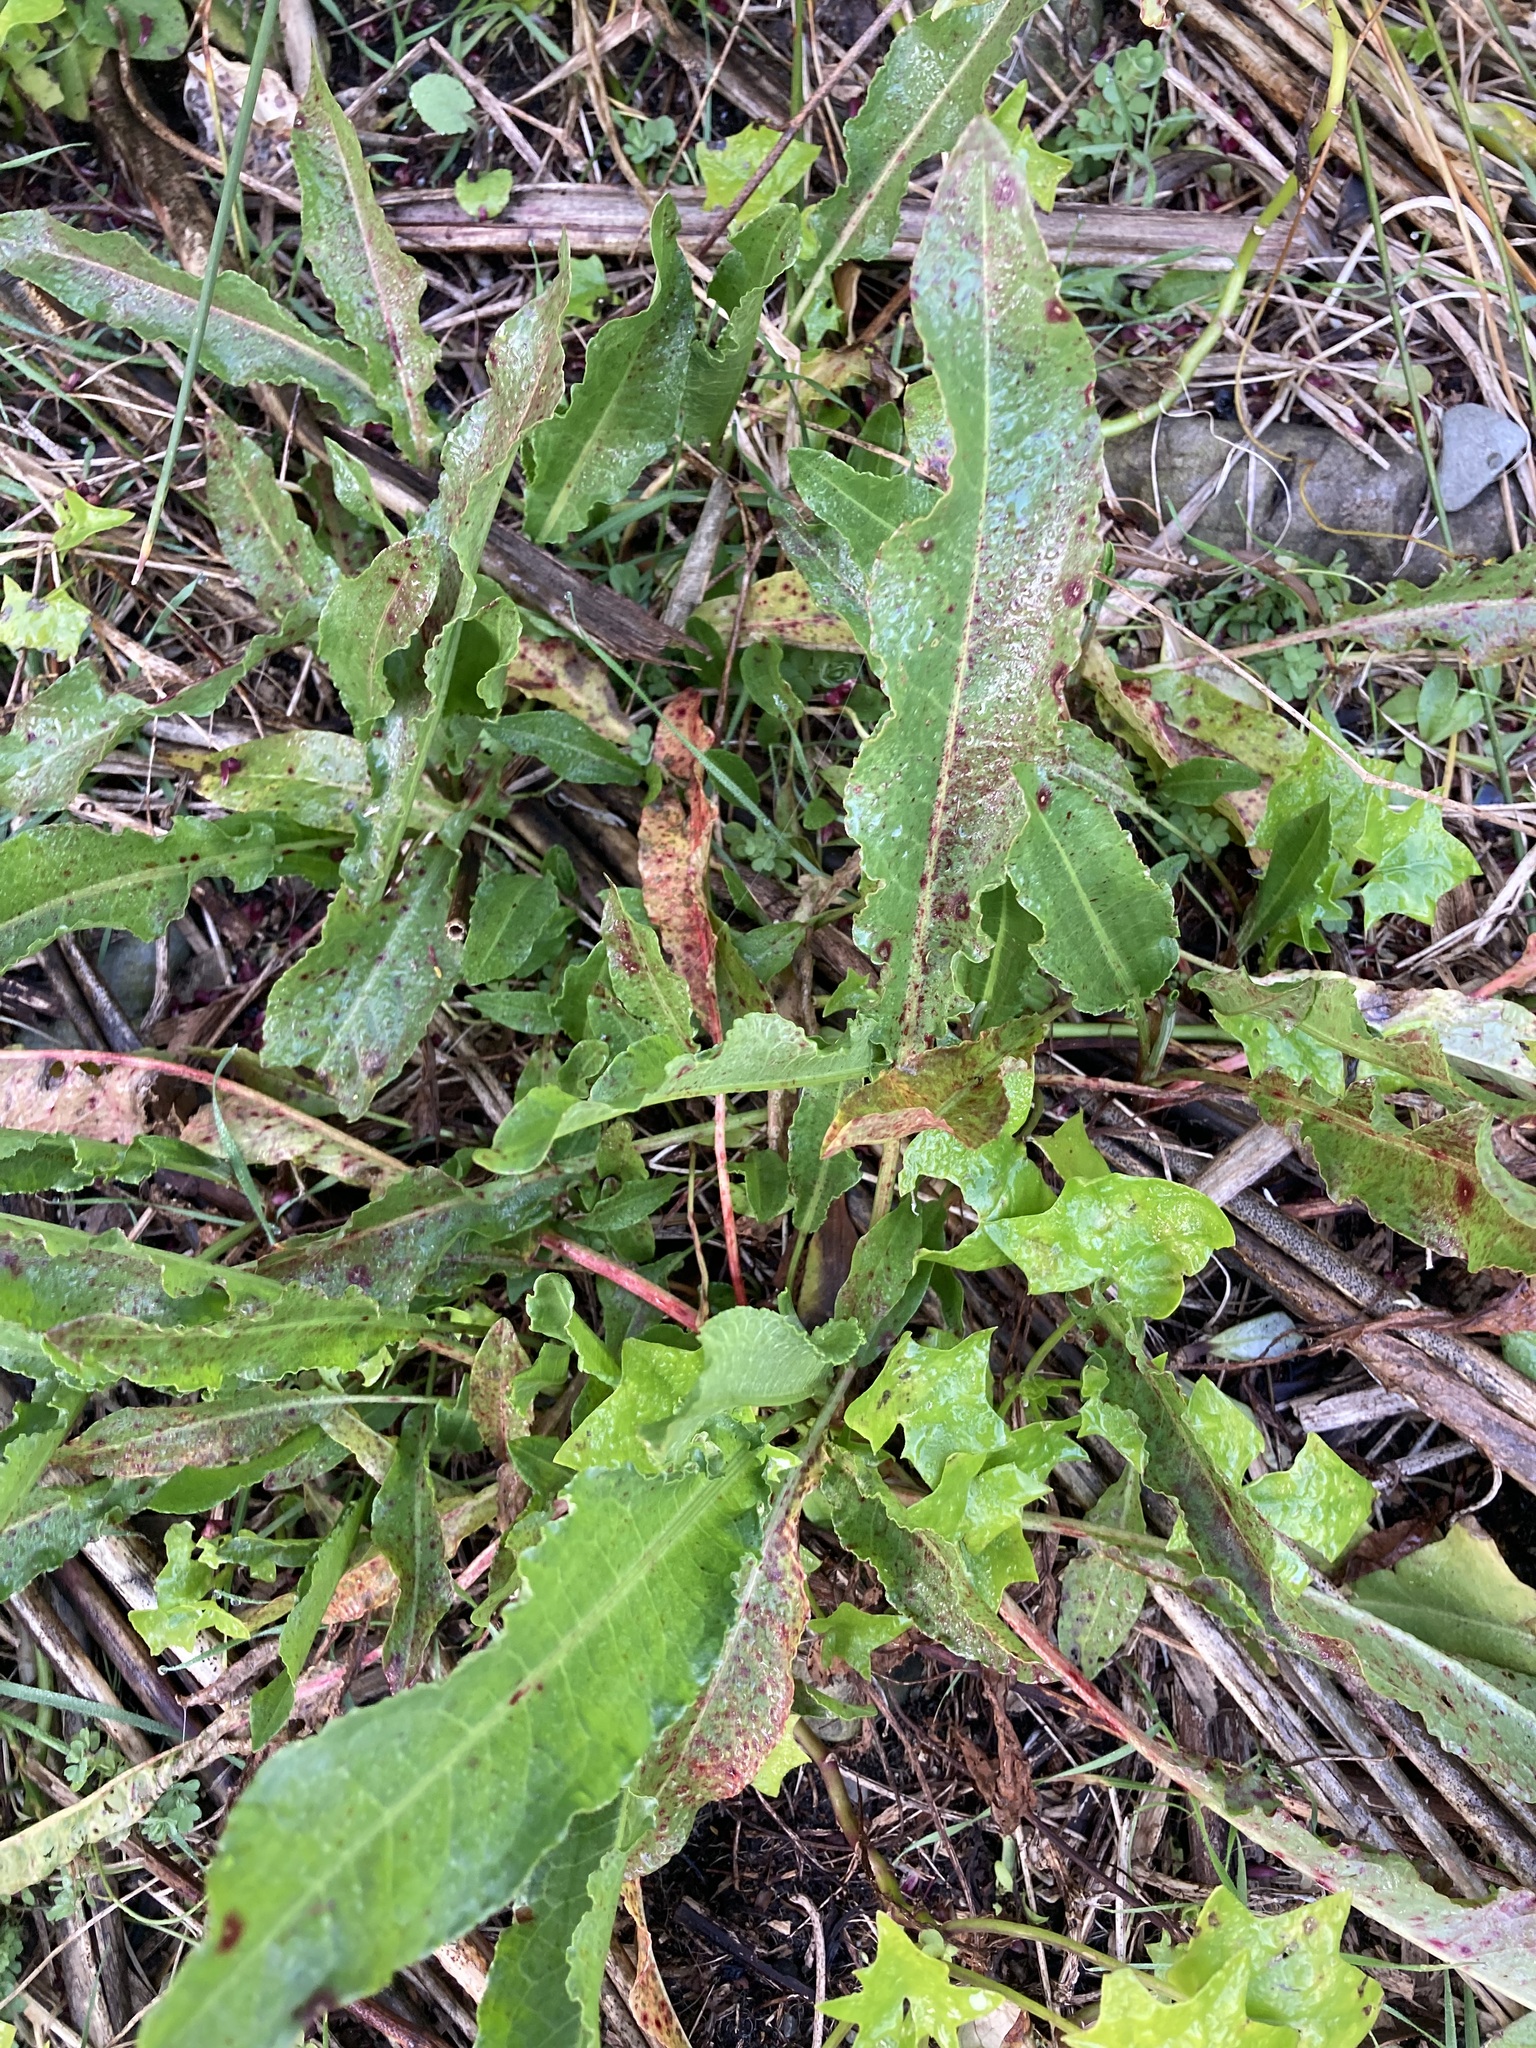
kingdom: Plantae
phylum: Tracheophyta
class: Magnoliopsida
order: Caryophyllales
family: Polygonaceae
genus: Rumex
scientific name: Rumex crispus
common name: Curled dock
